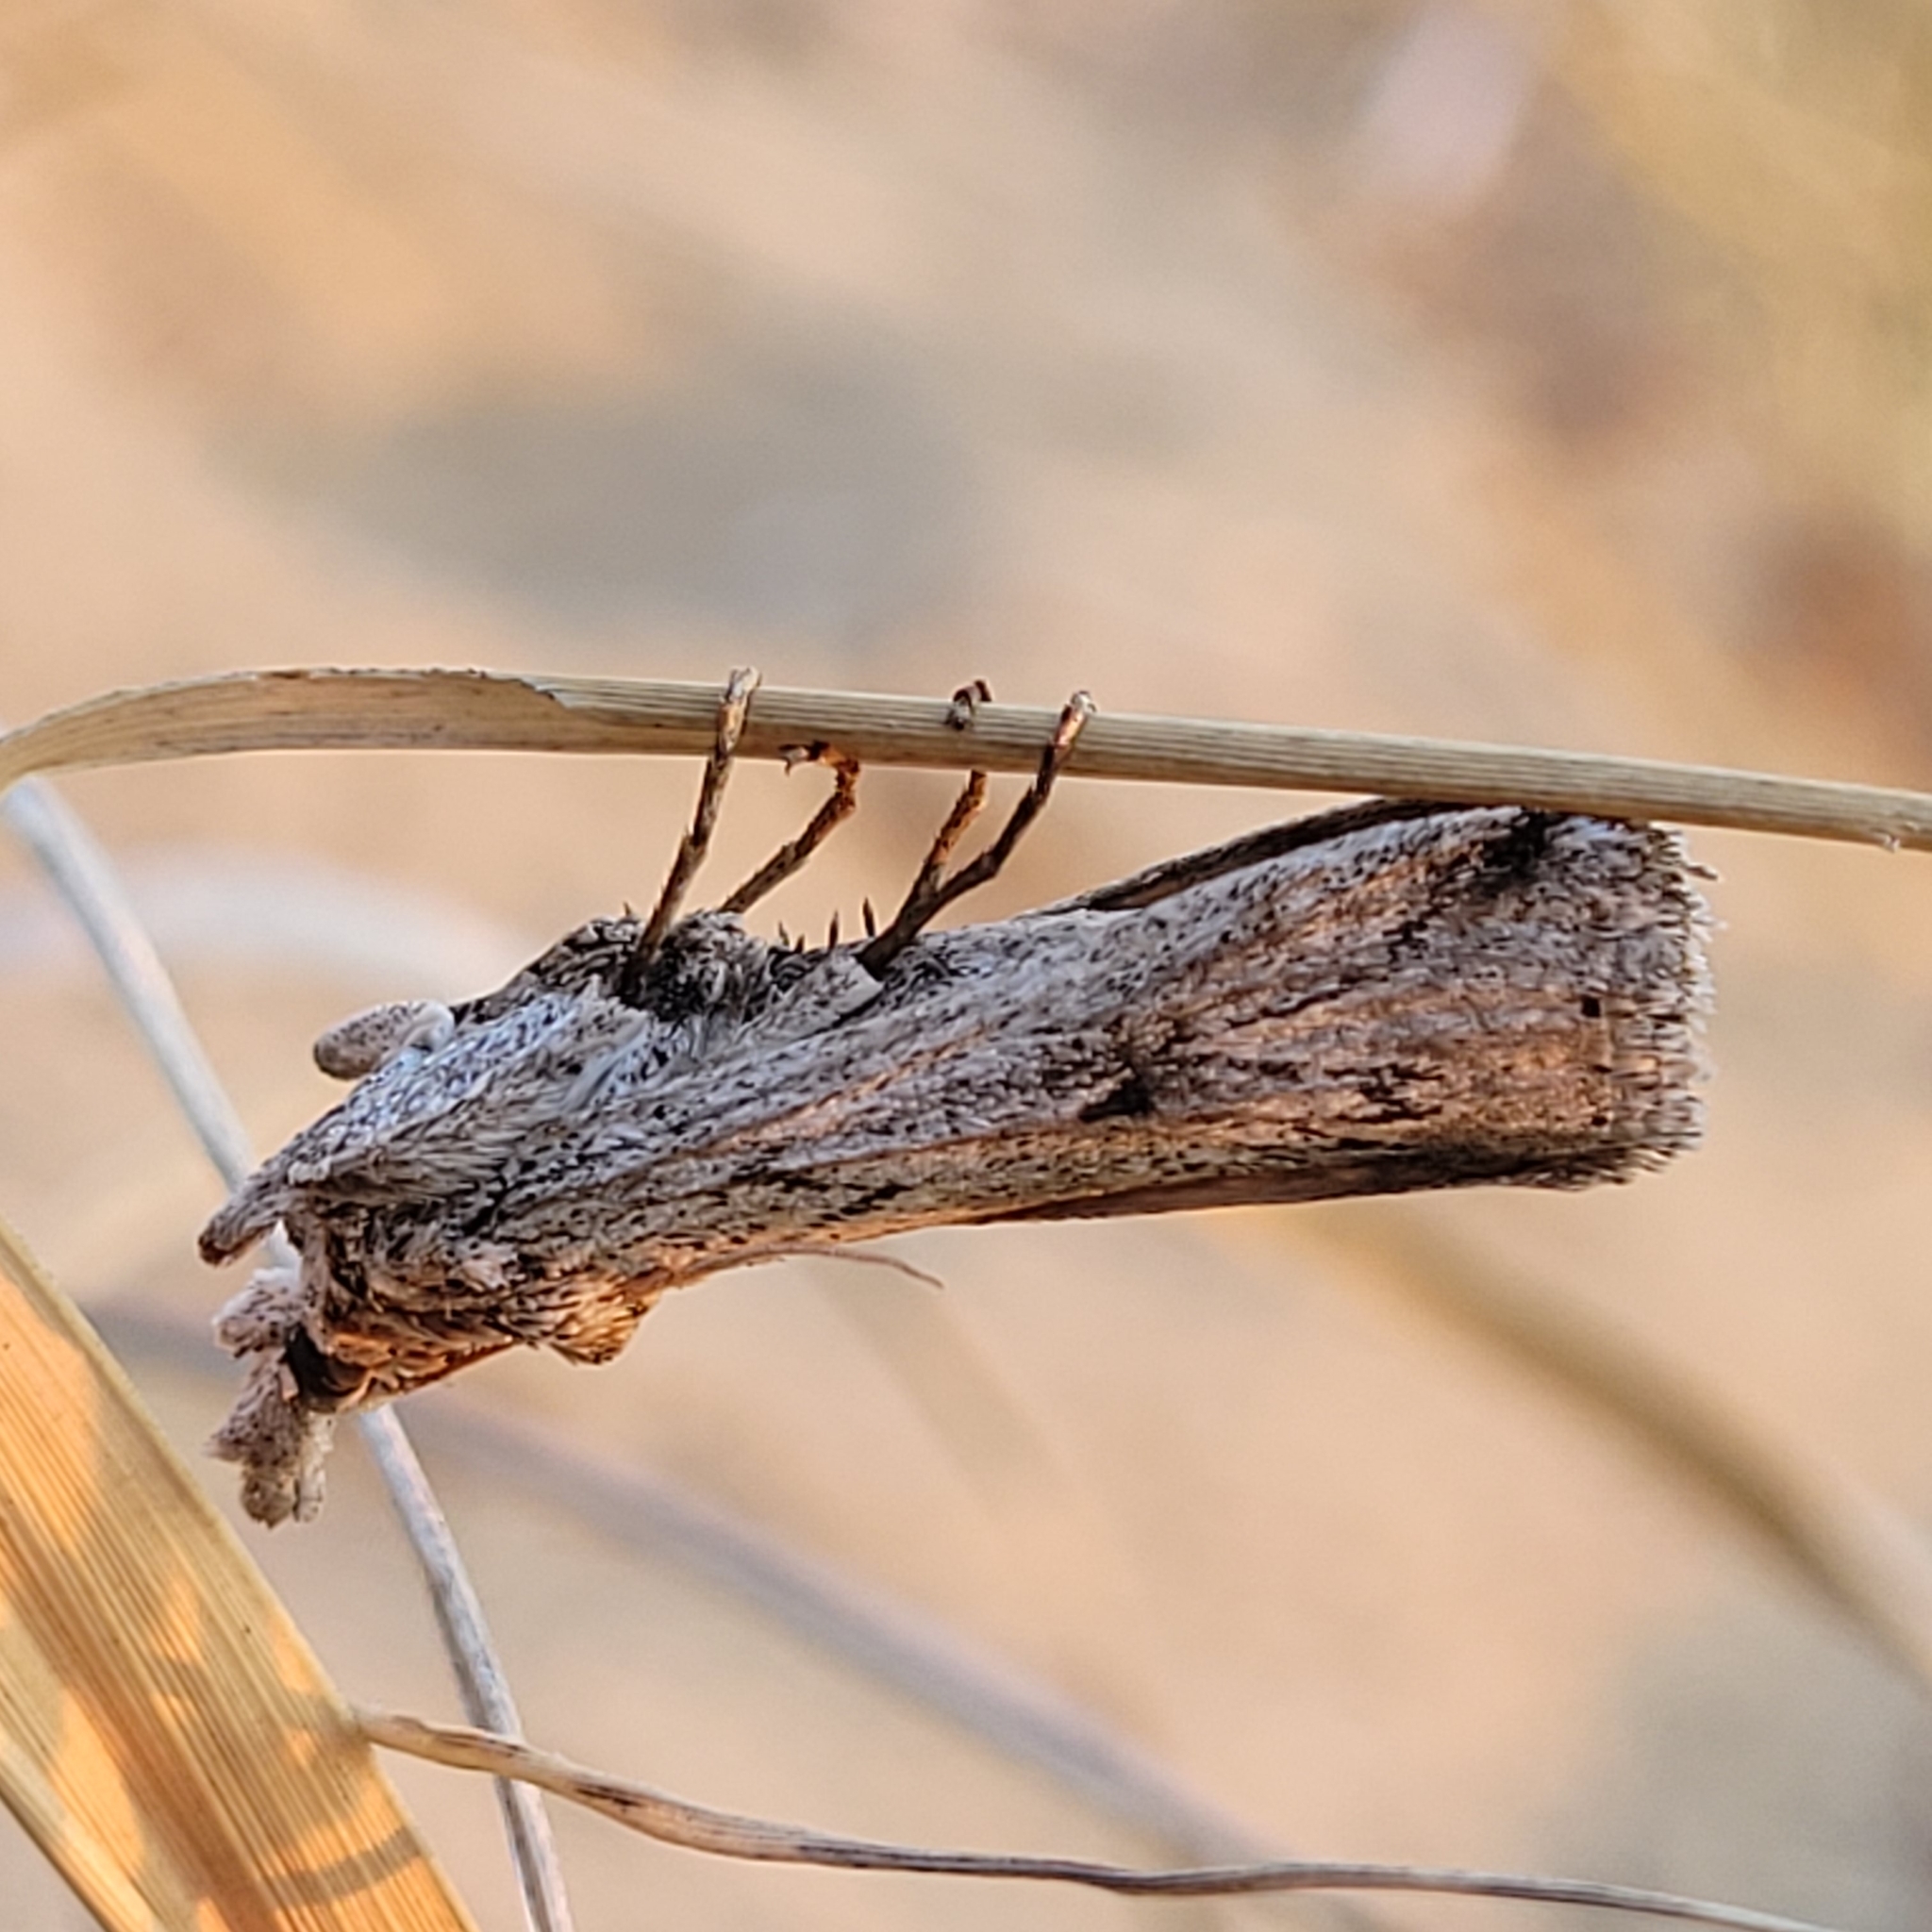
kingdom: Animalia
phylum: Arthropoda
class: Insecta
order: Lepidoptera
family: Pyralidae
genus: Melitara
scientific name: Melitara dentata
